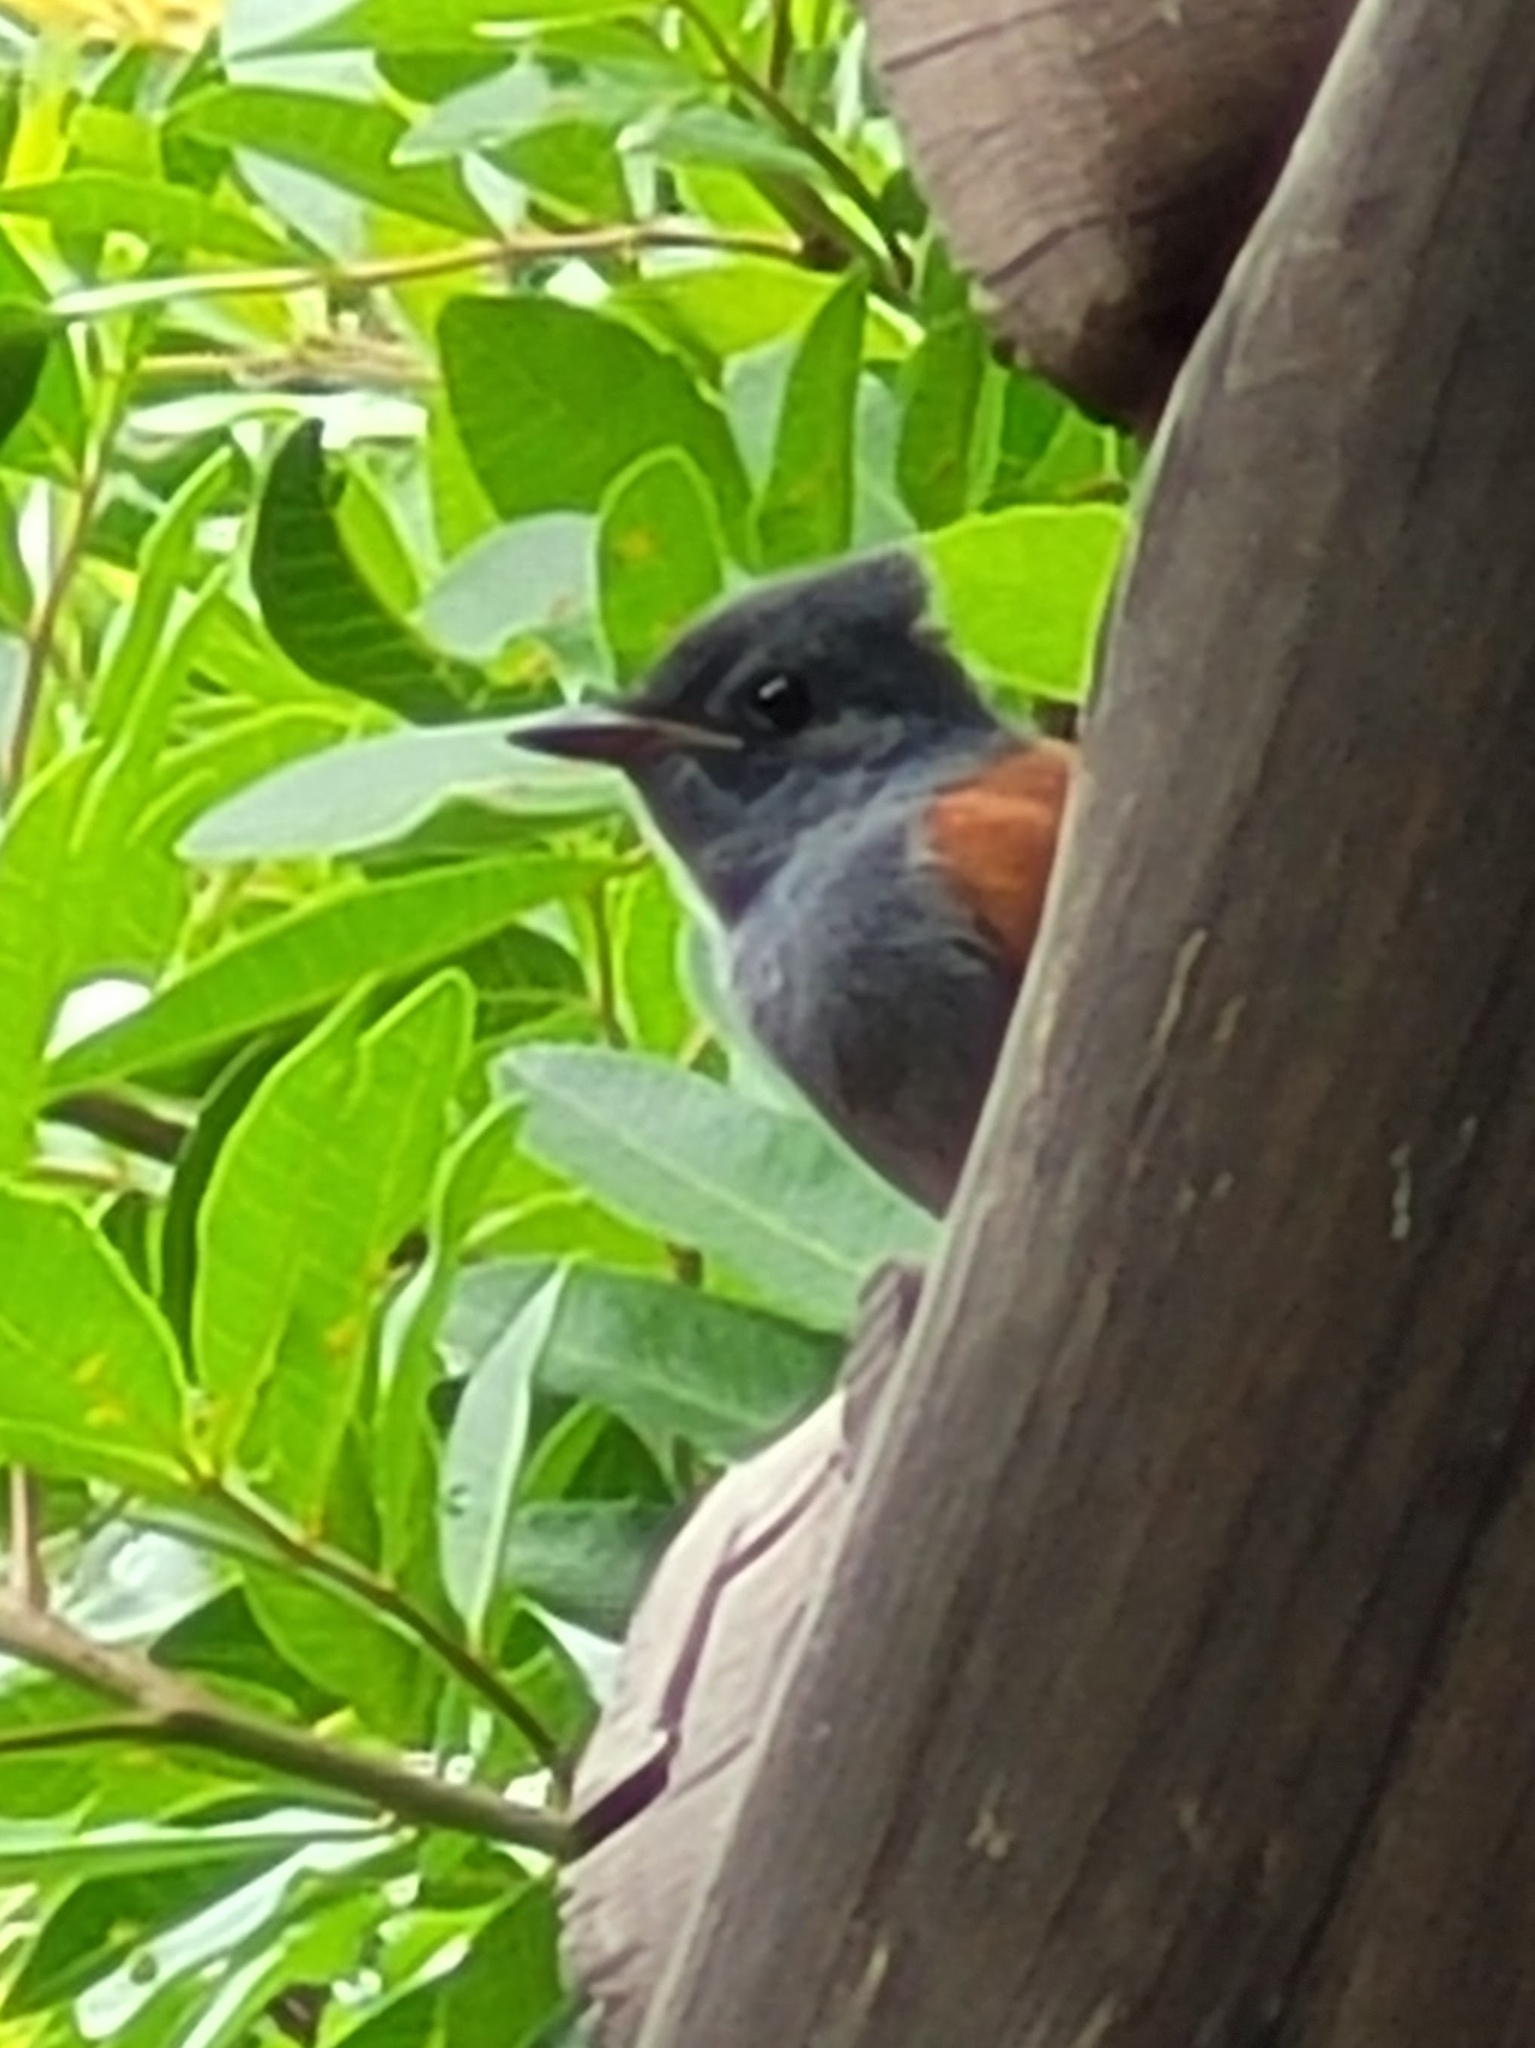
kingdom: Animalia
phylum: Chordata
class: Aves
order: Passeriformes
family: Monarchidae
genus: Terpsiphone
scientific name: Terpsiphone viridis
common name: African paradise flycatcher
